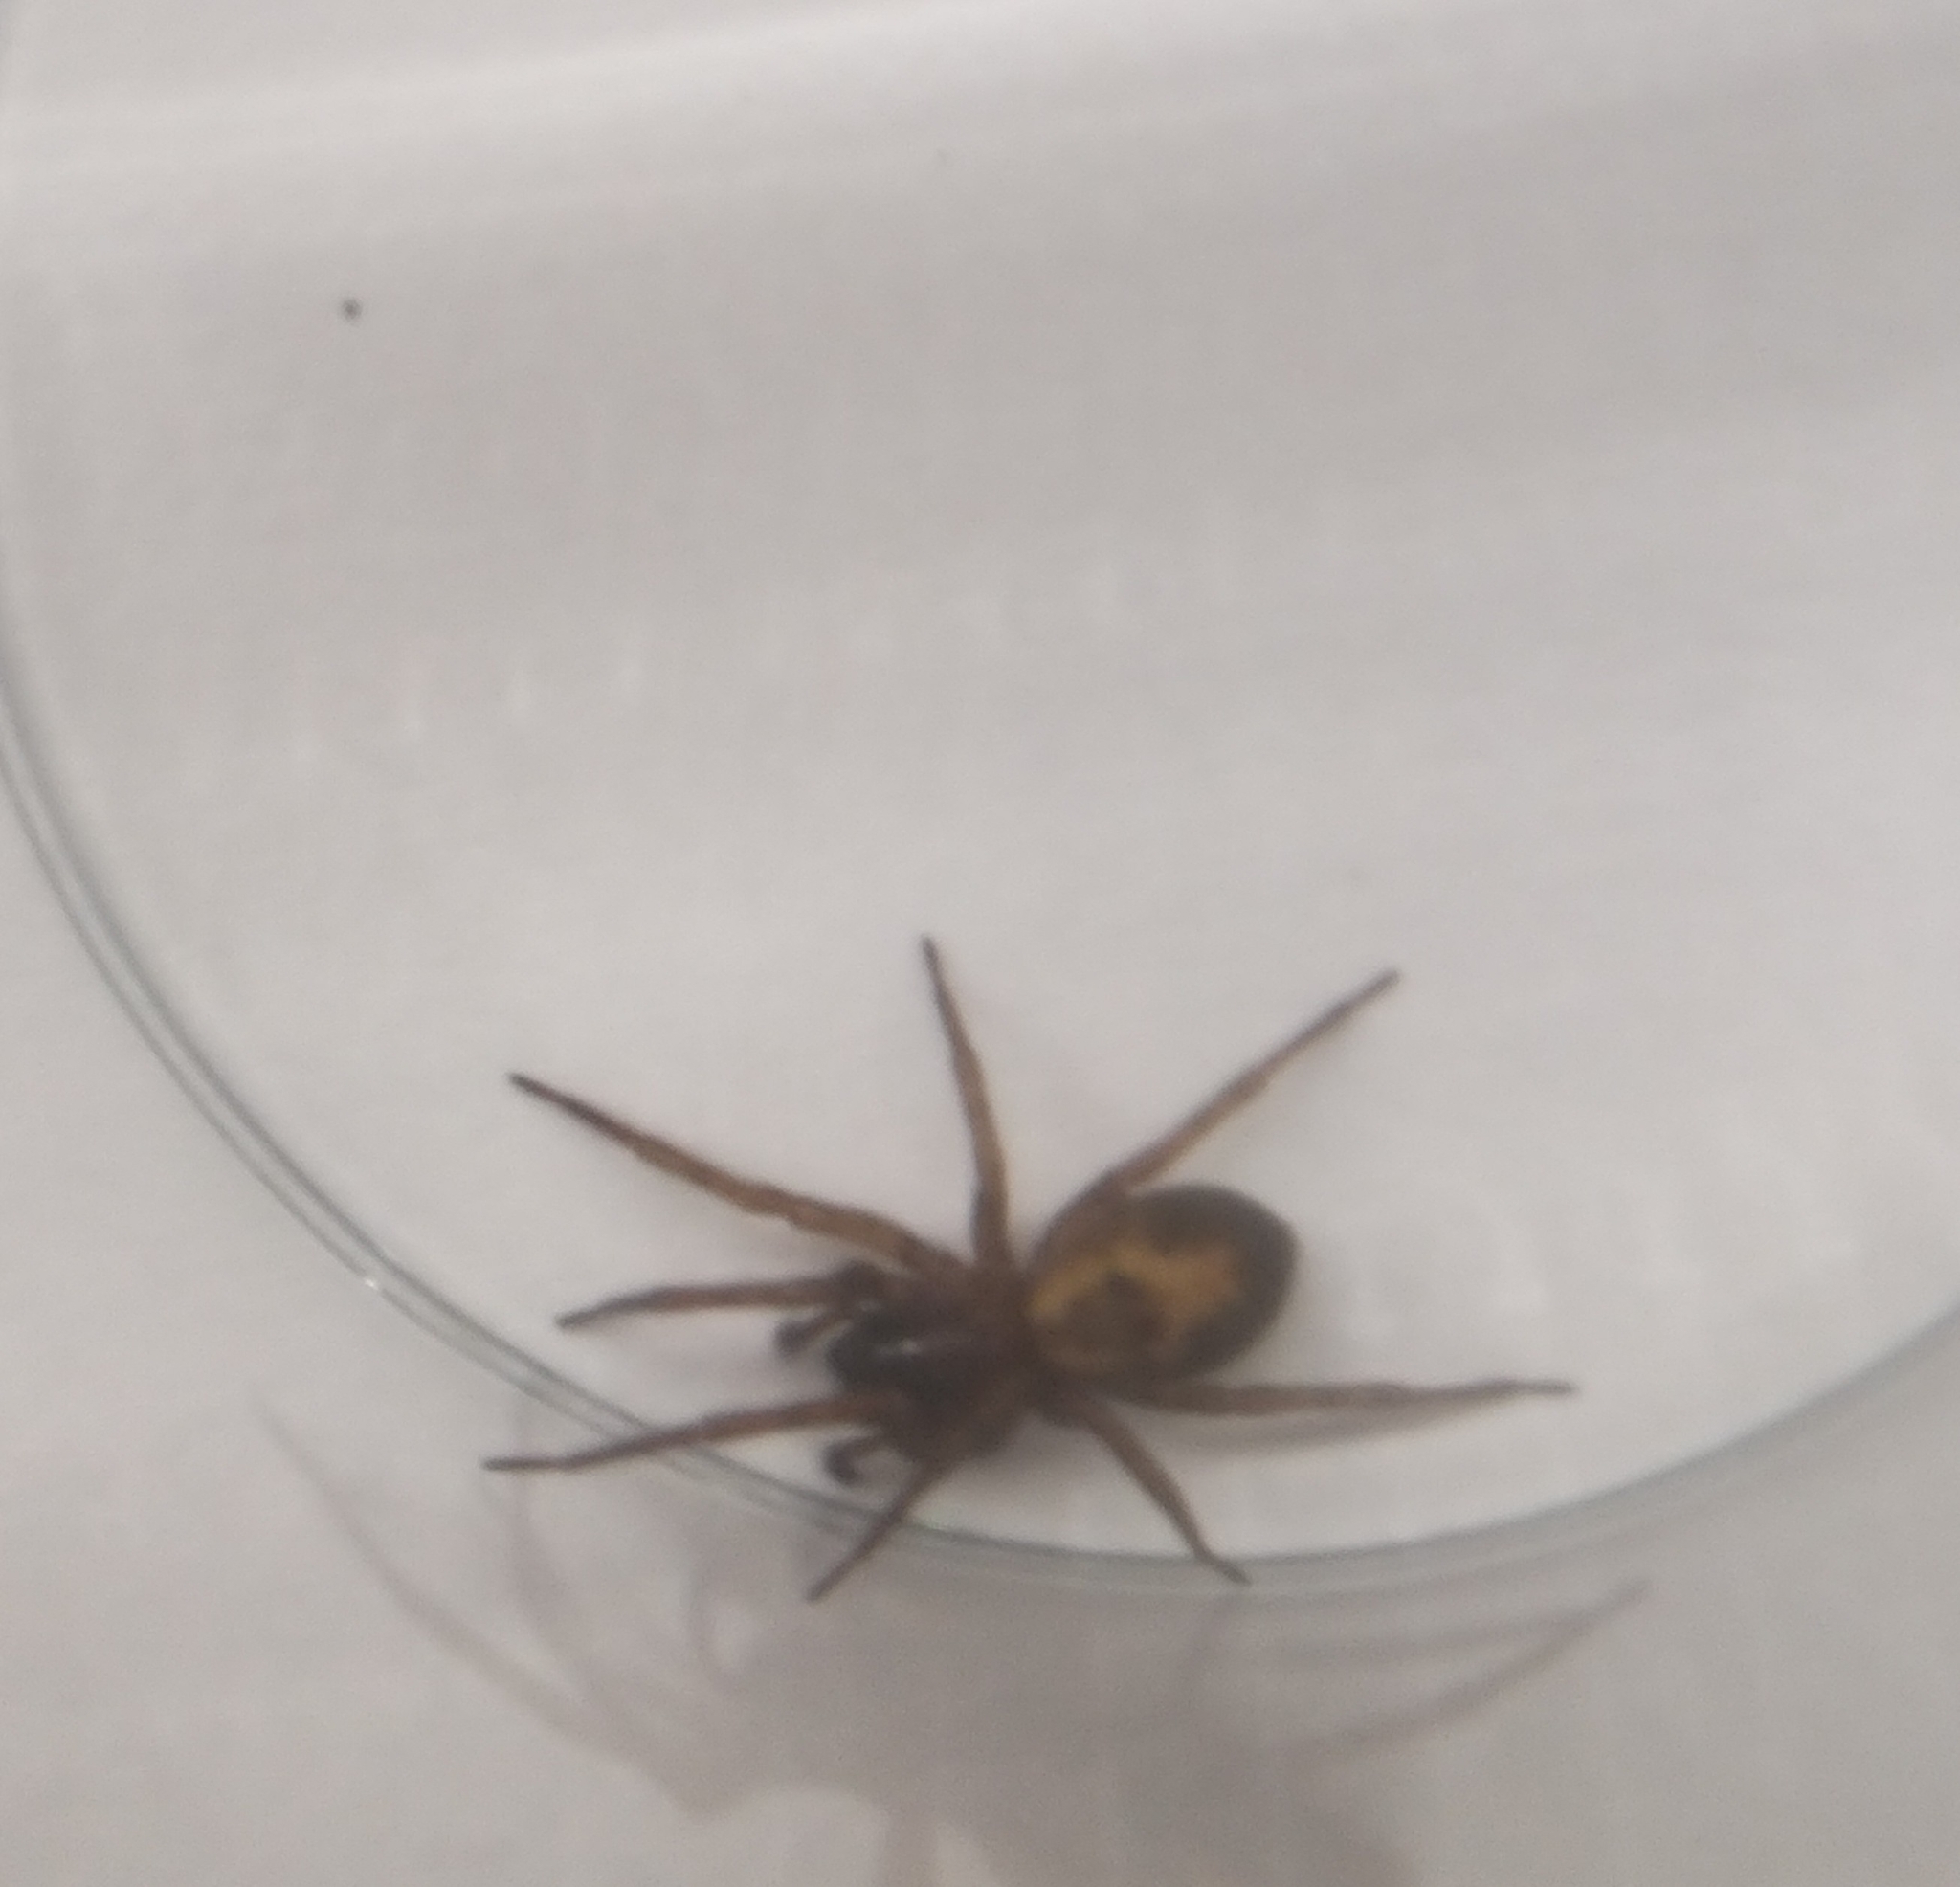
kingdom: Animalia
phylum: Arthropoda
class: Arachnida
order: Araneae
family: Amaurobiidae
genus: Amaurobius
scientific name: Amaurobius similis
